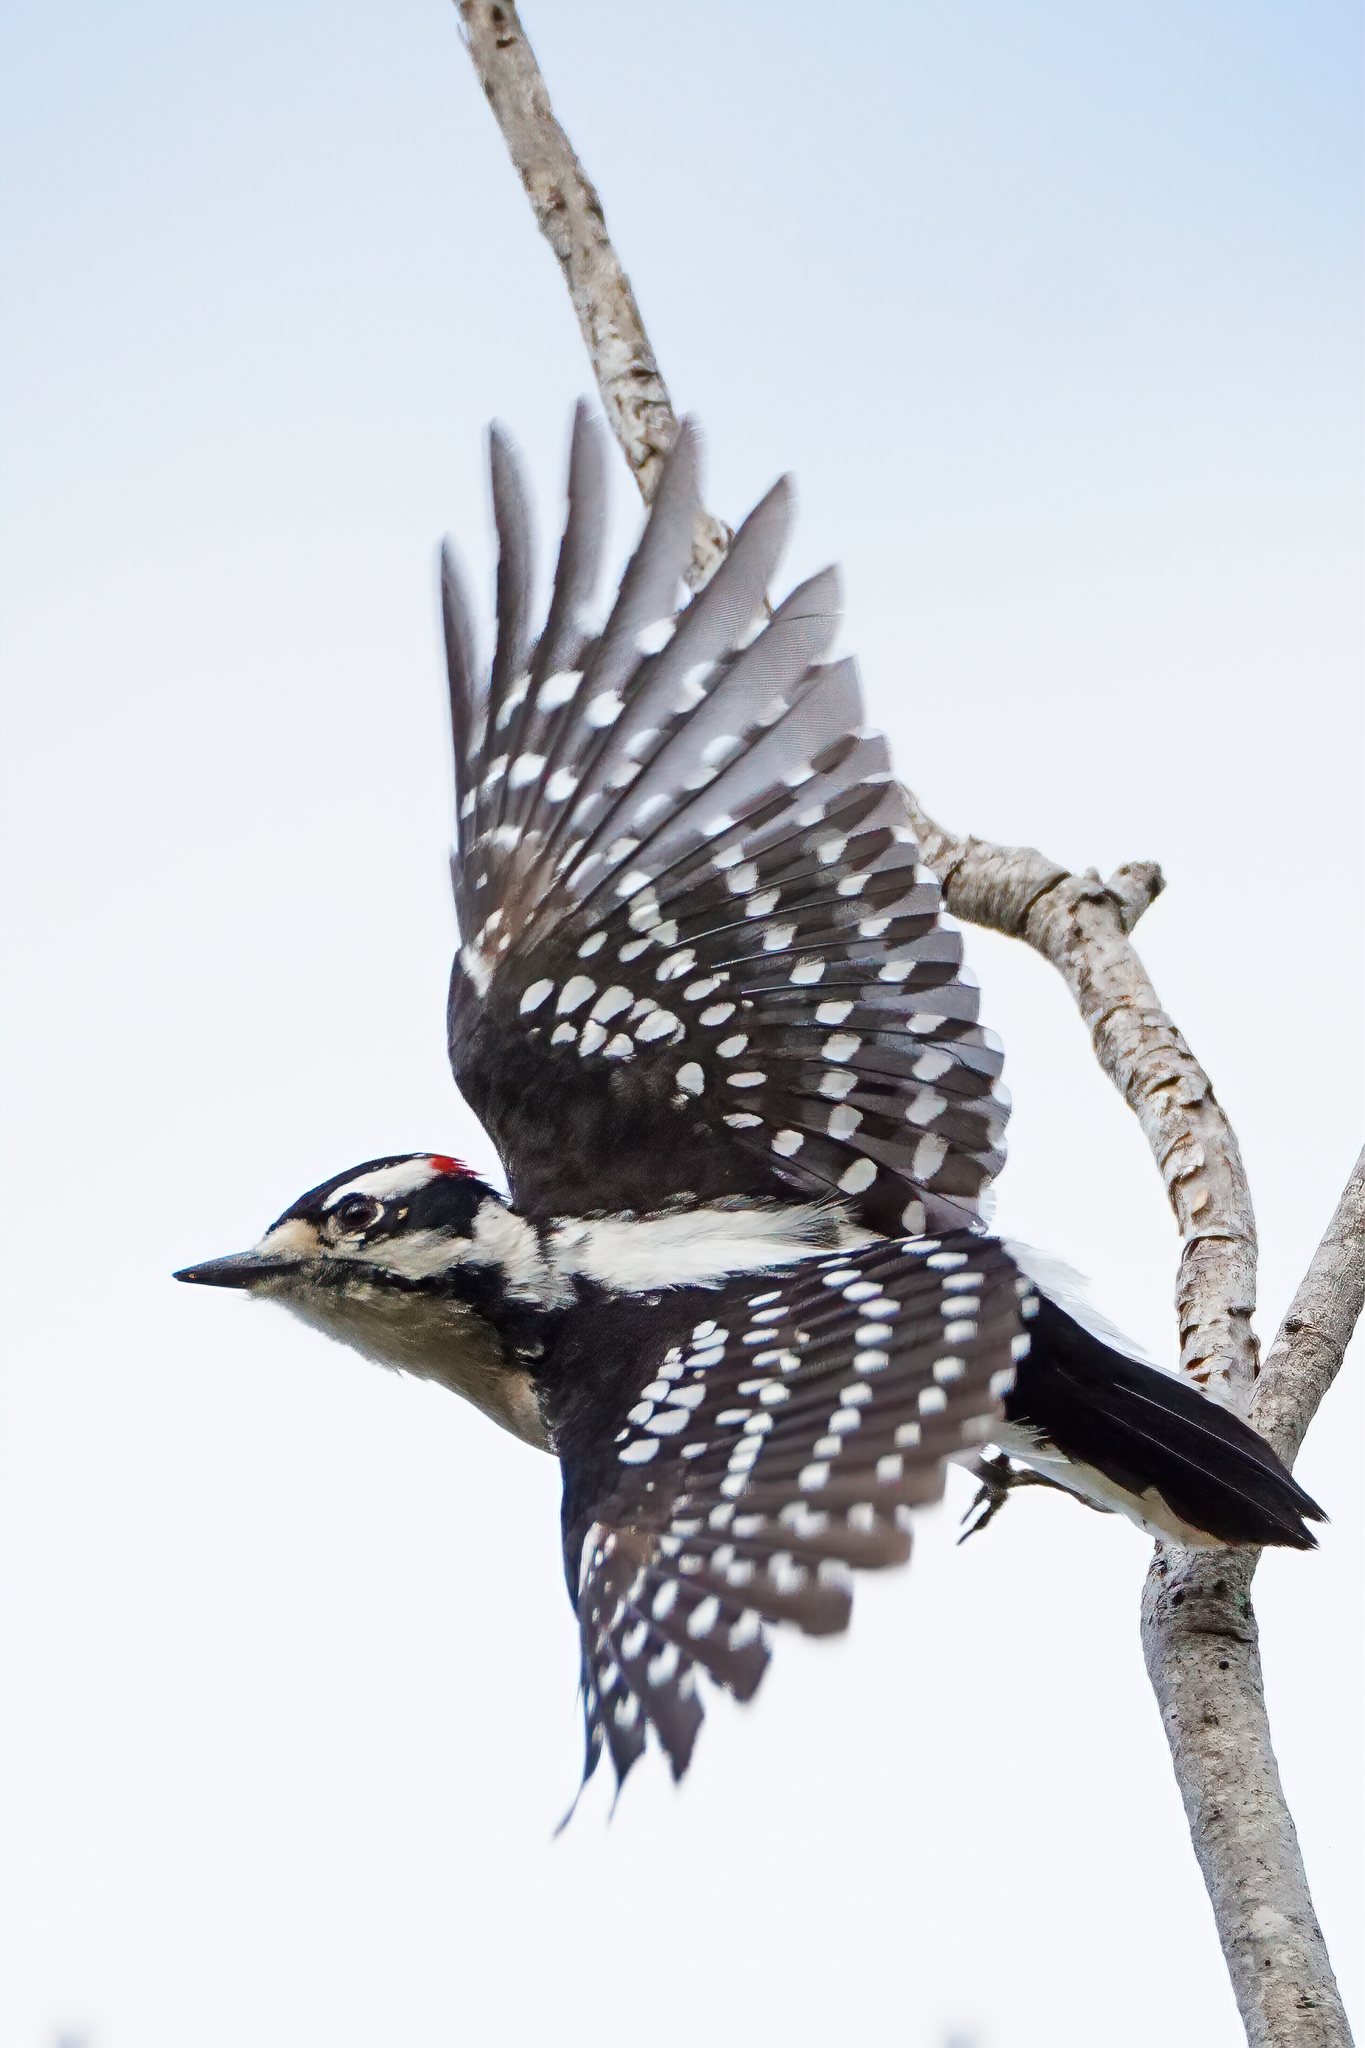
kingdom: Animalia
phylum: Chordata
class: Aves
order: Piciformes
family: Picidae
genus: Dryobates
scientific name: Dryobates pubescens
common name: Downy woodpecker
